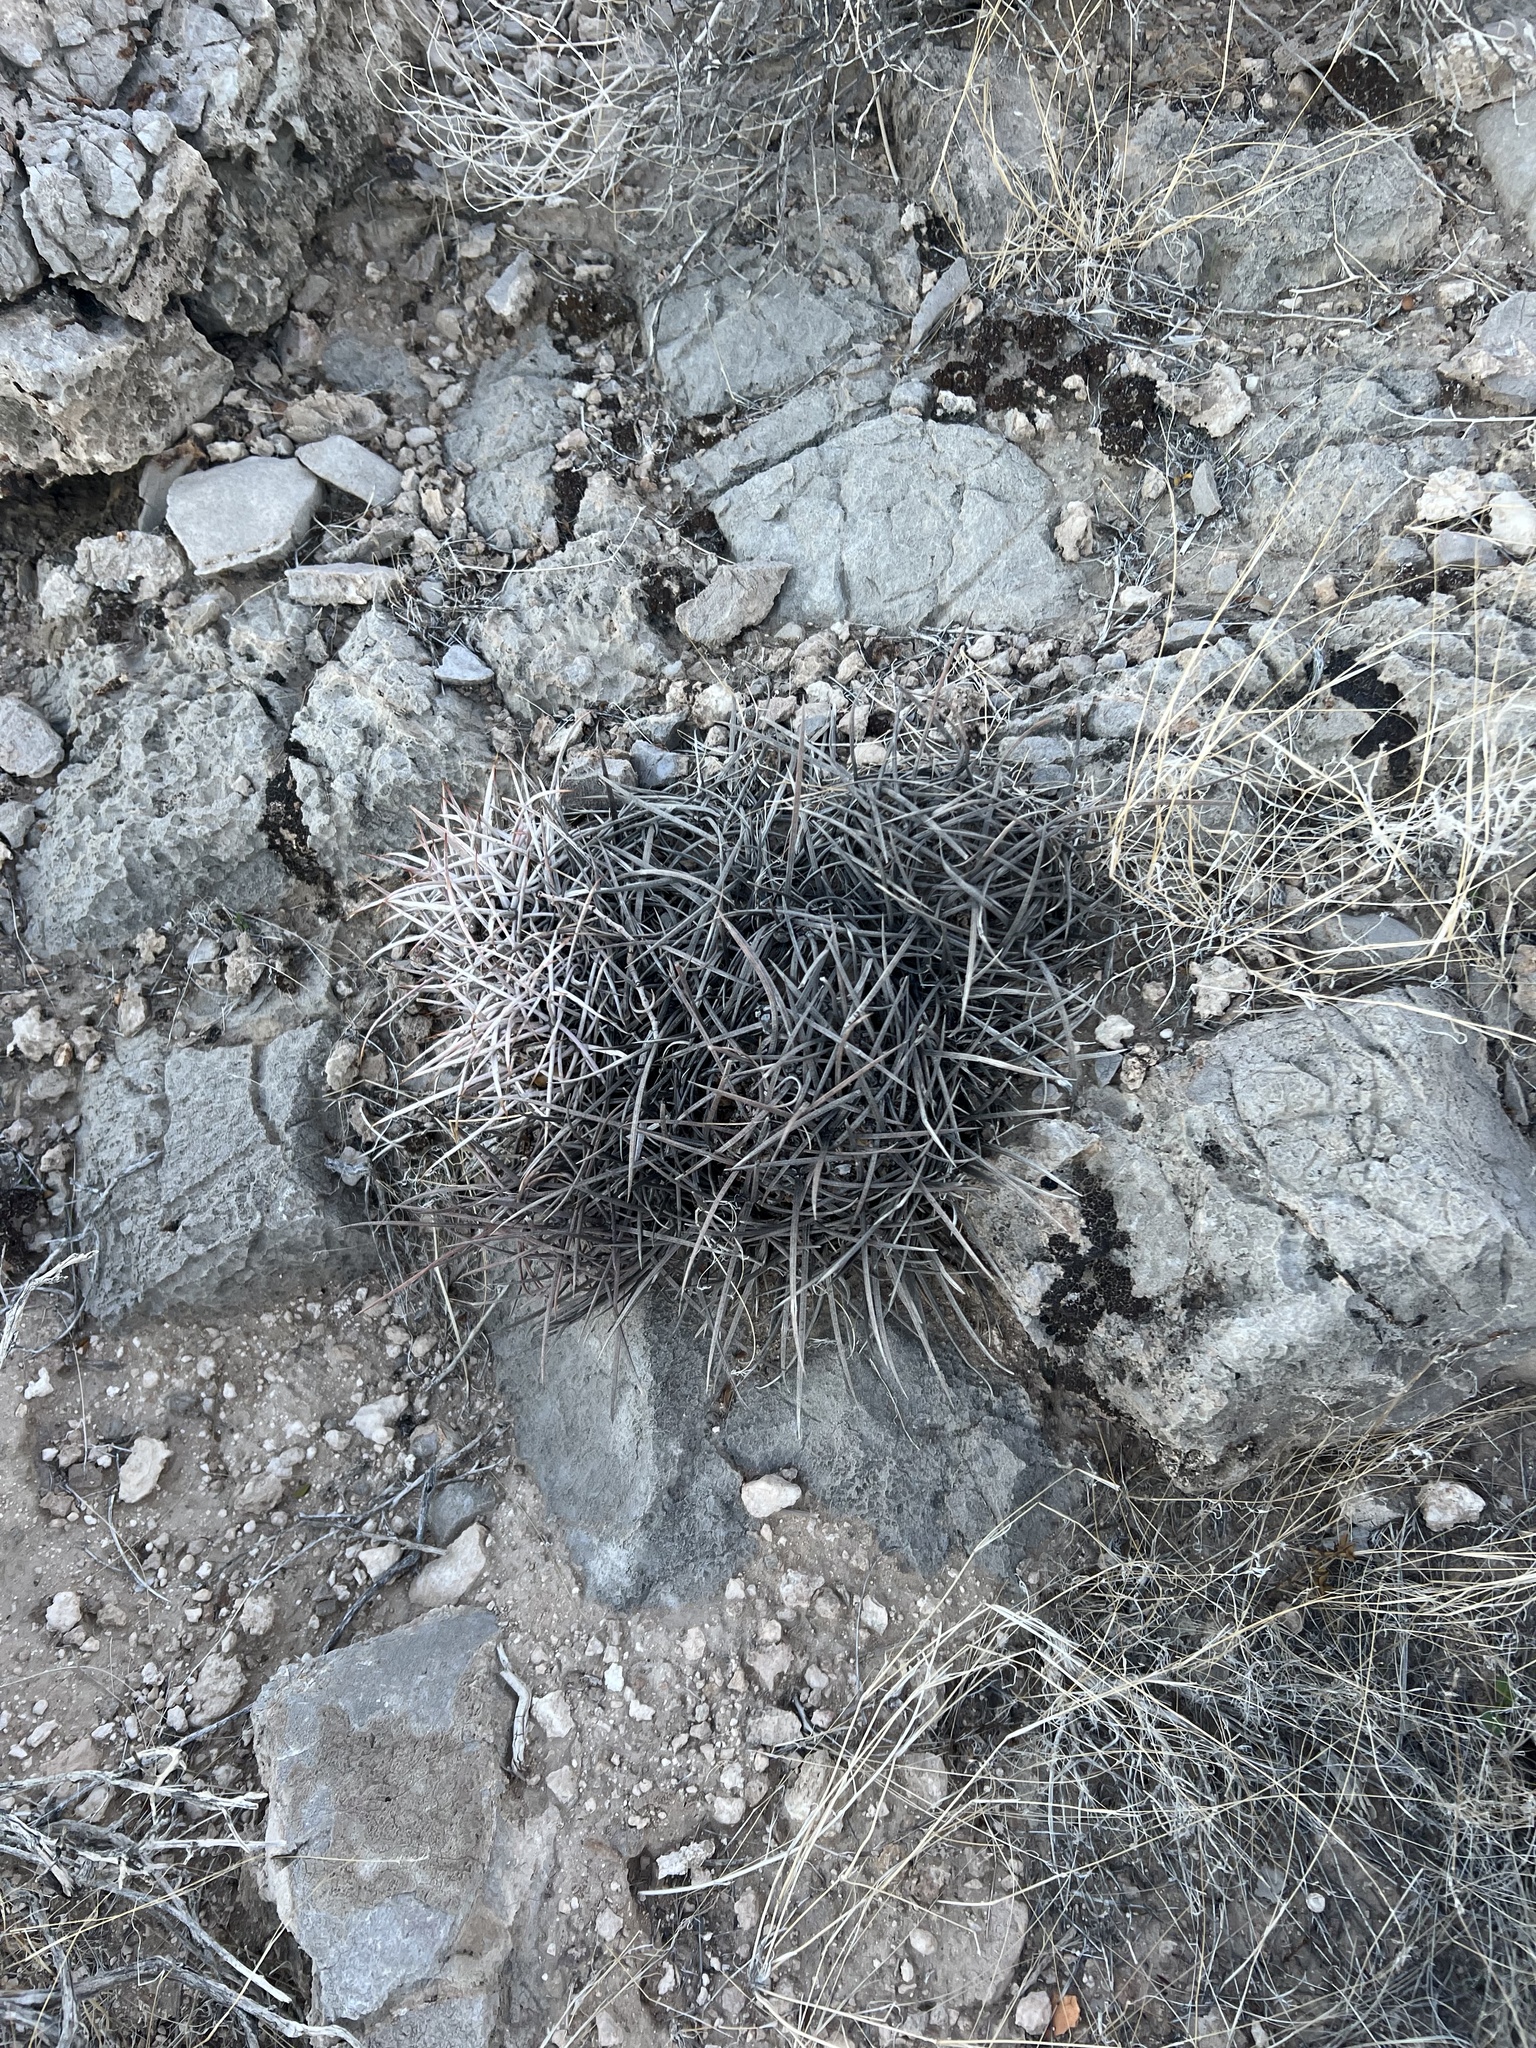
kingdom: Plantae
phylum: Tracheophyta
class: Magnoliopsida
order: Caryophyllales
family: Cactaceae
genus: Echinocactus
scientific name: Echinocactus polycephalus
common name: Cottontop cactus
